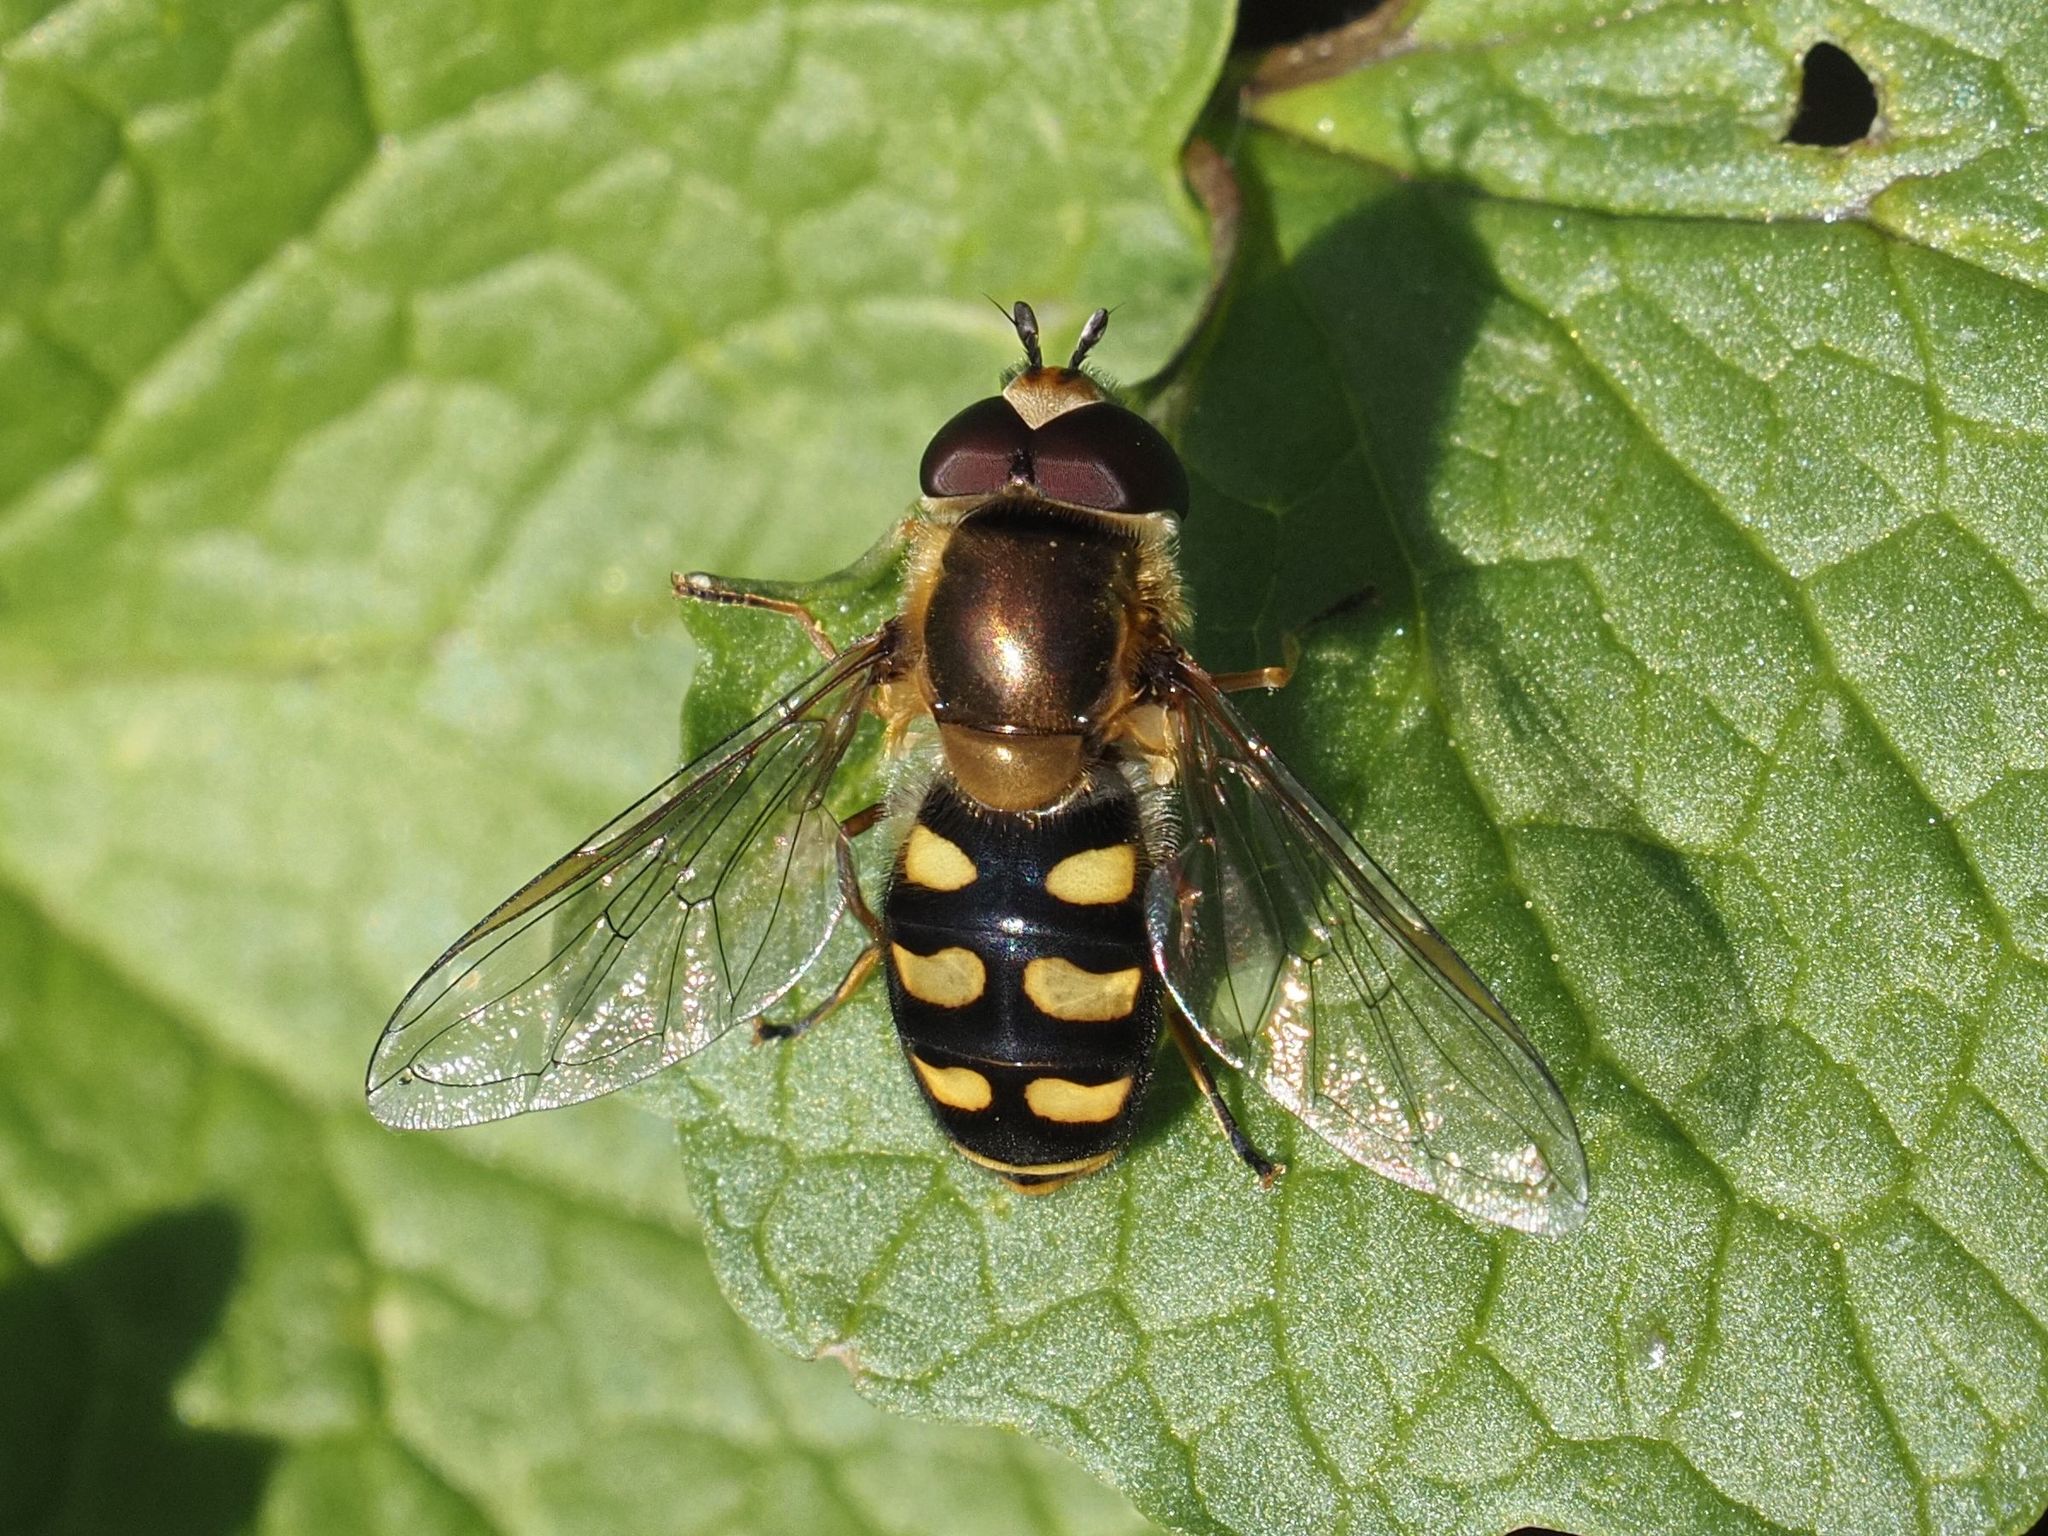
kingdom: Animalia
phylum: Arthropoda
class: Insecta
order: Diptera
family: Syrphidae
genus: Eupeodes
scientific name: Eupeodes luniger
